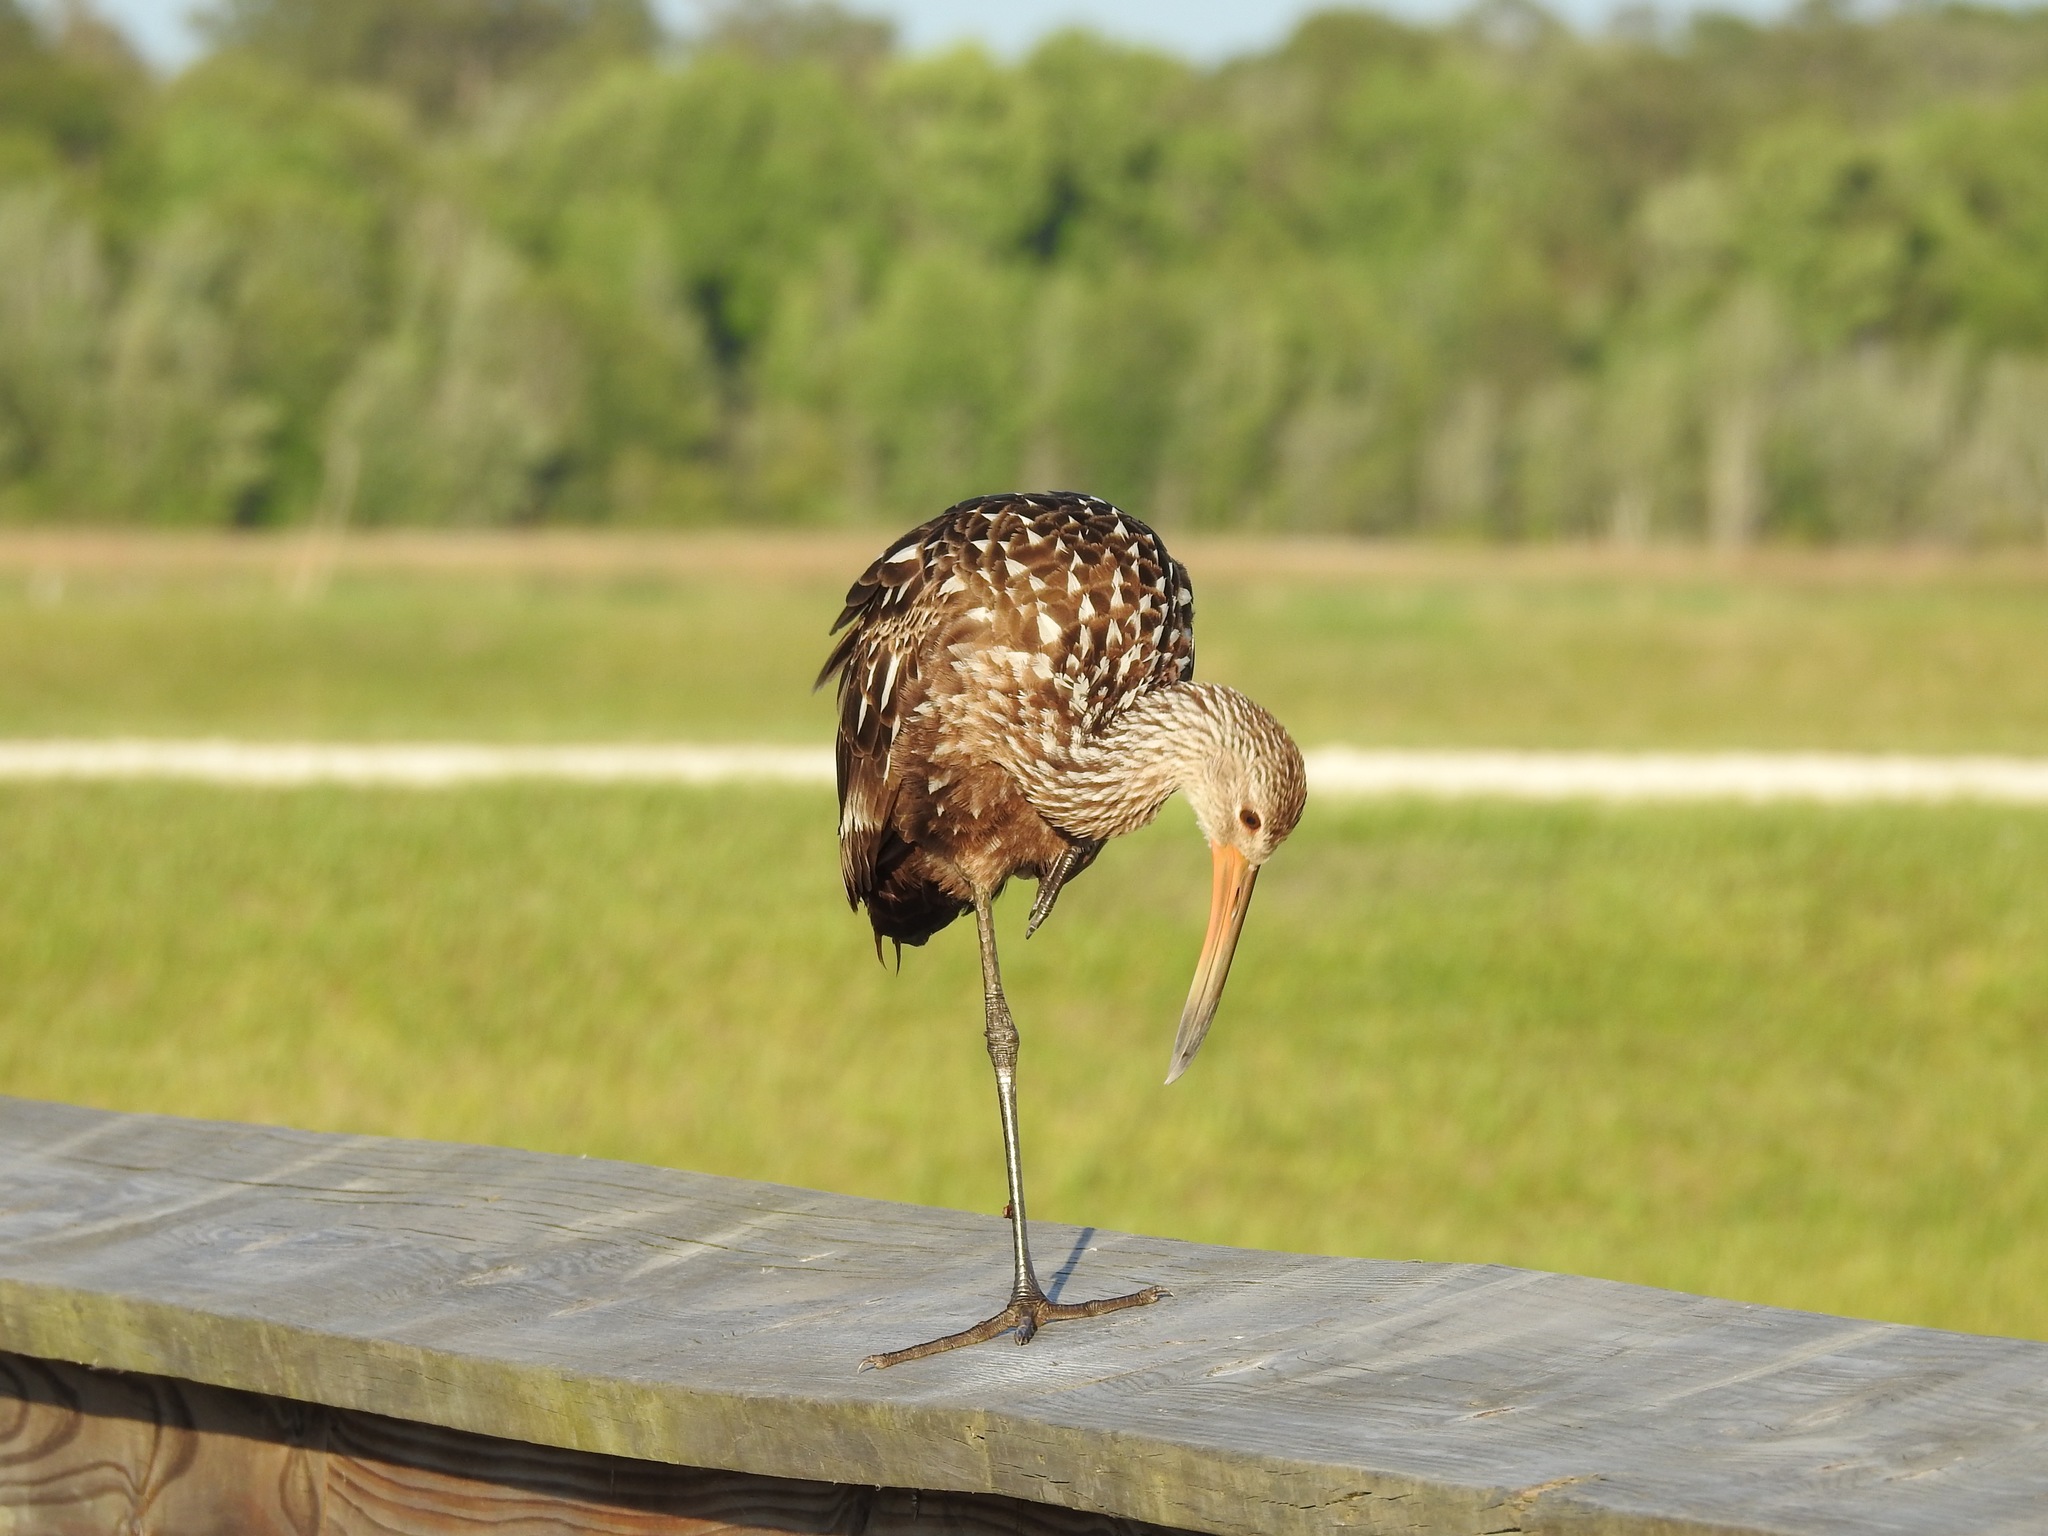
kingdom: Animalia
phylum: Chordata
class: Aves
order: Gruiformes
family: Aramidae
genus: Aramus
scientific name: Aramus guarauna
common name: Limpkin
